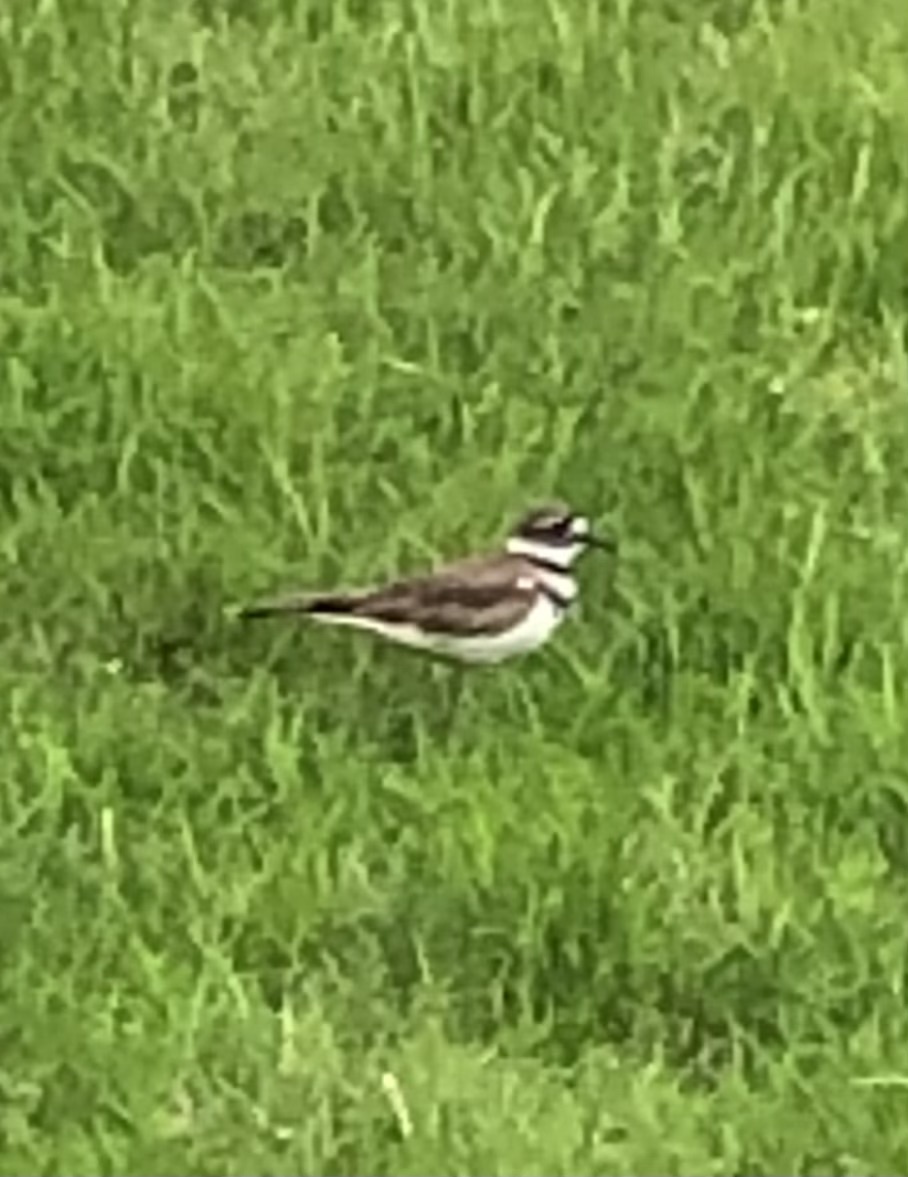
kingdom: Animalia
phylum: Chordata
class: Aves
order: Charadriiformes
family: Charadriidae
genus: Charadrius
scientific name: Charadrius vociferus
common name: Killdeer
